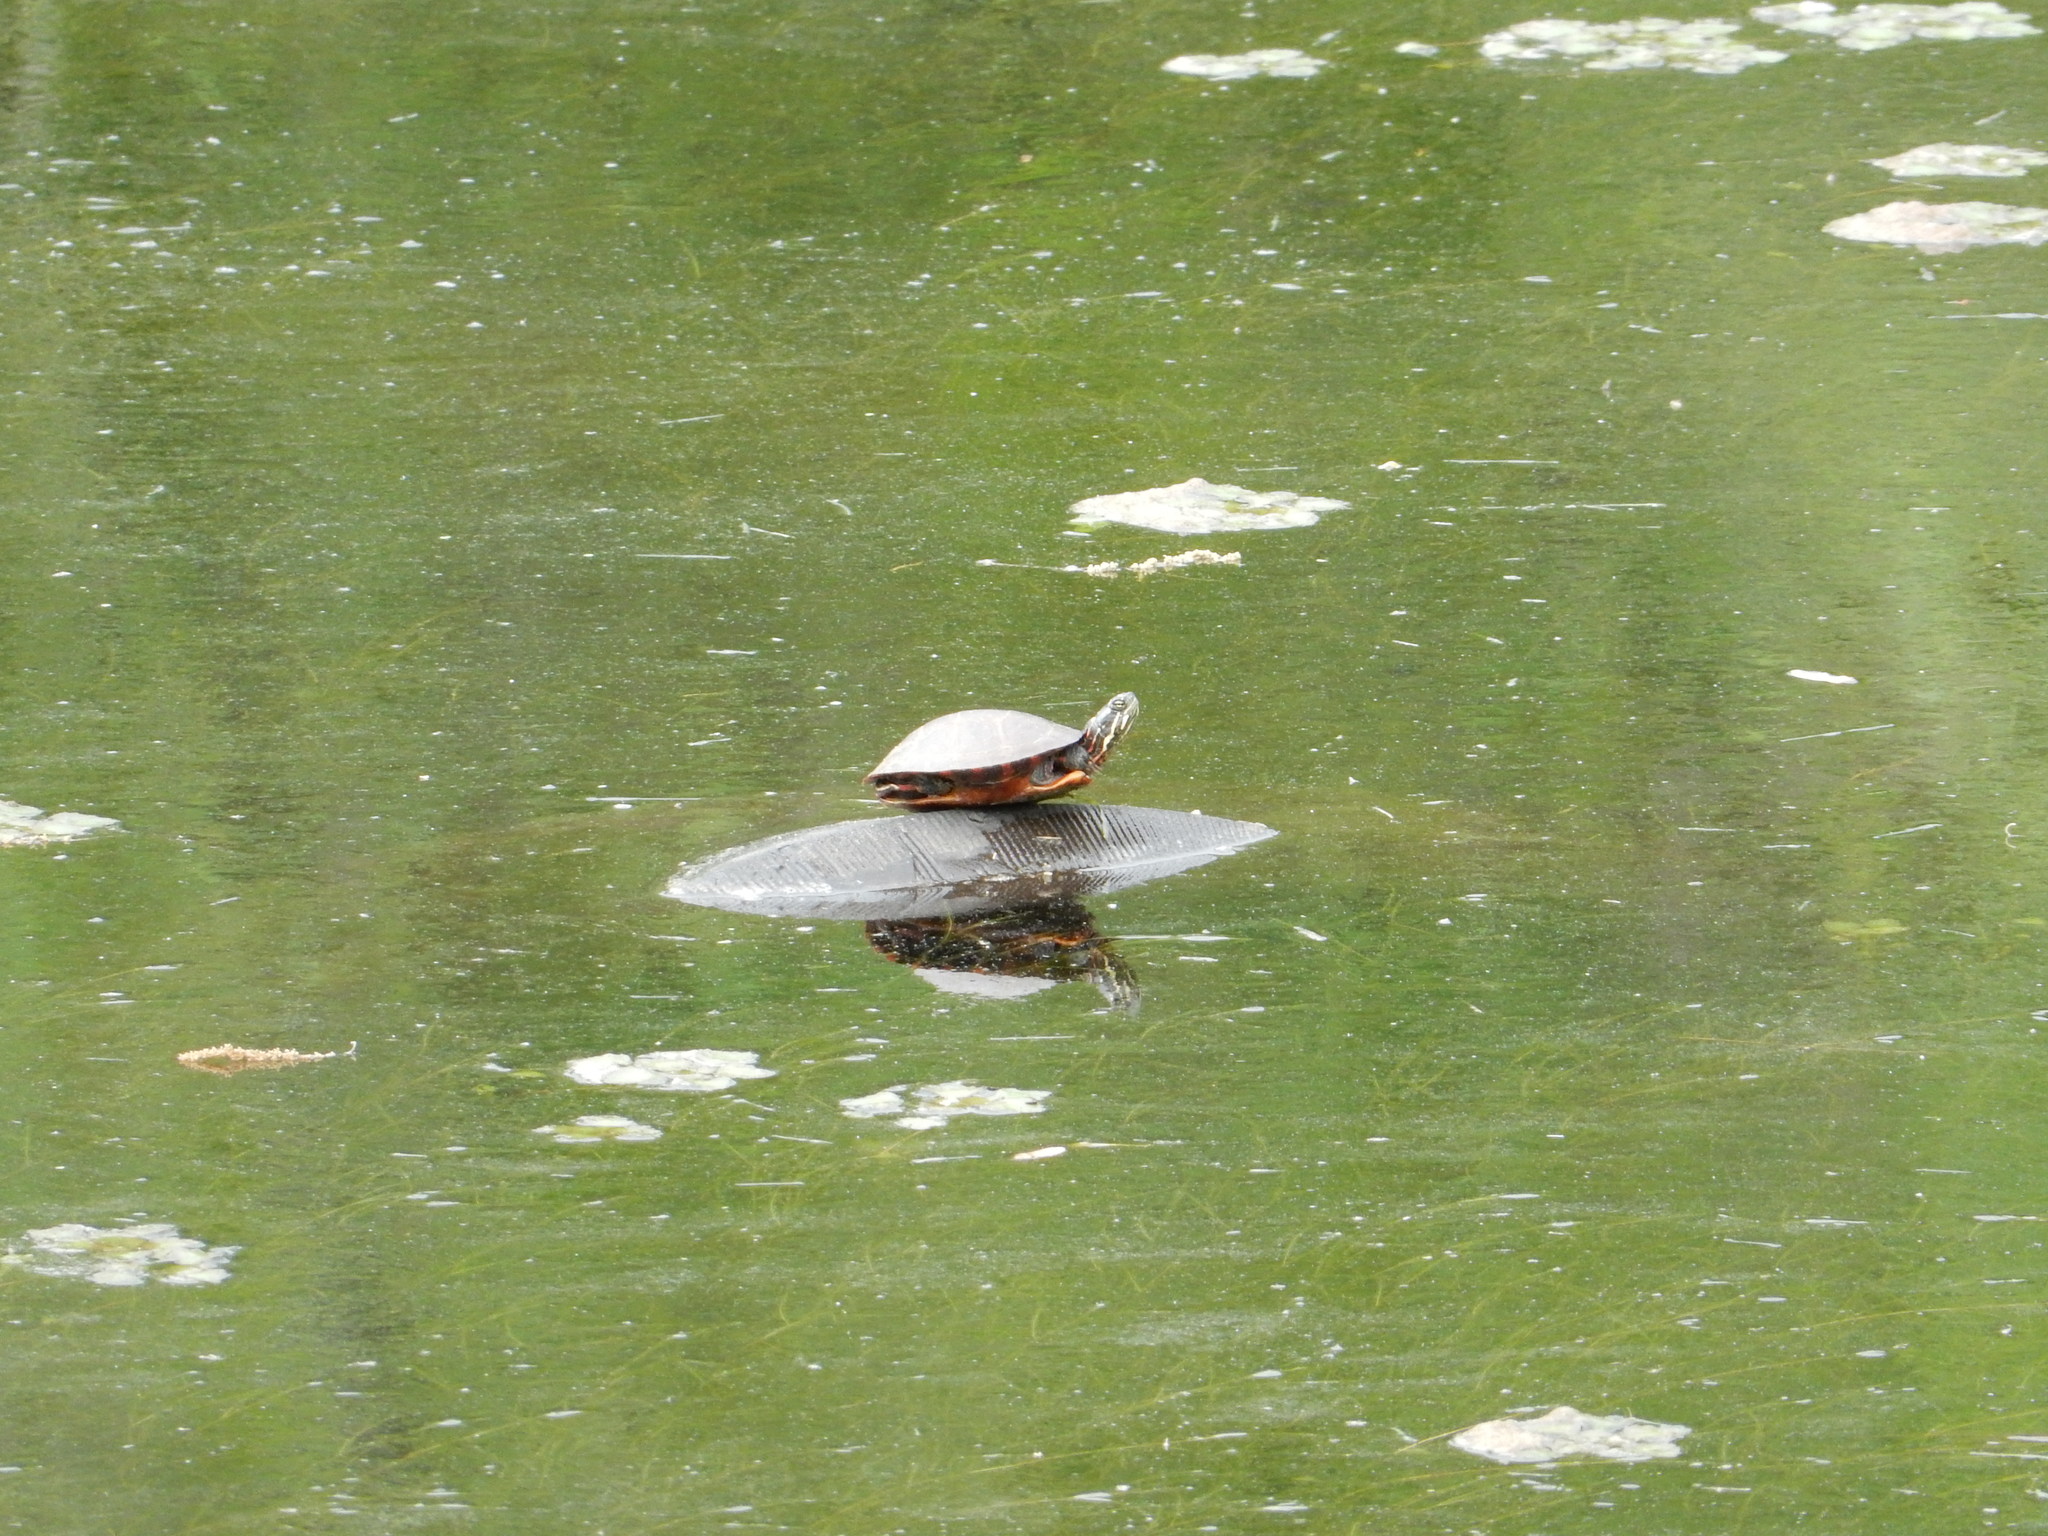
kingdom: Animalia
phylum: Chordata
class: Testudines
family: Emydidae
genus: Chrysemys
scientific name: Chrysemys picta
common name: Painted turtle
